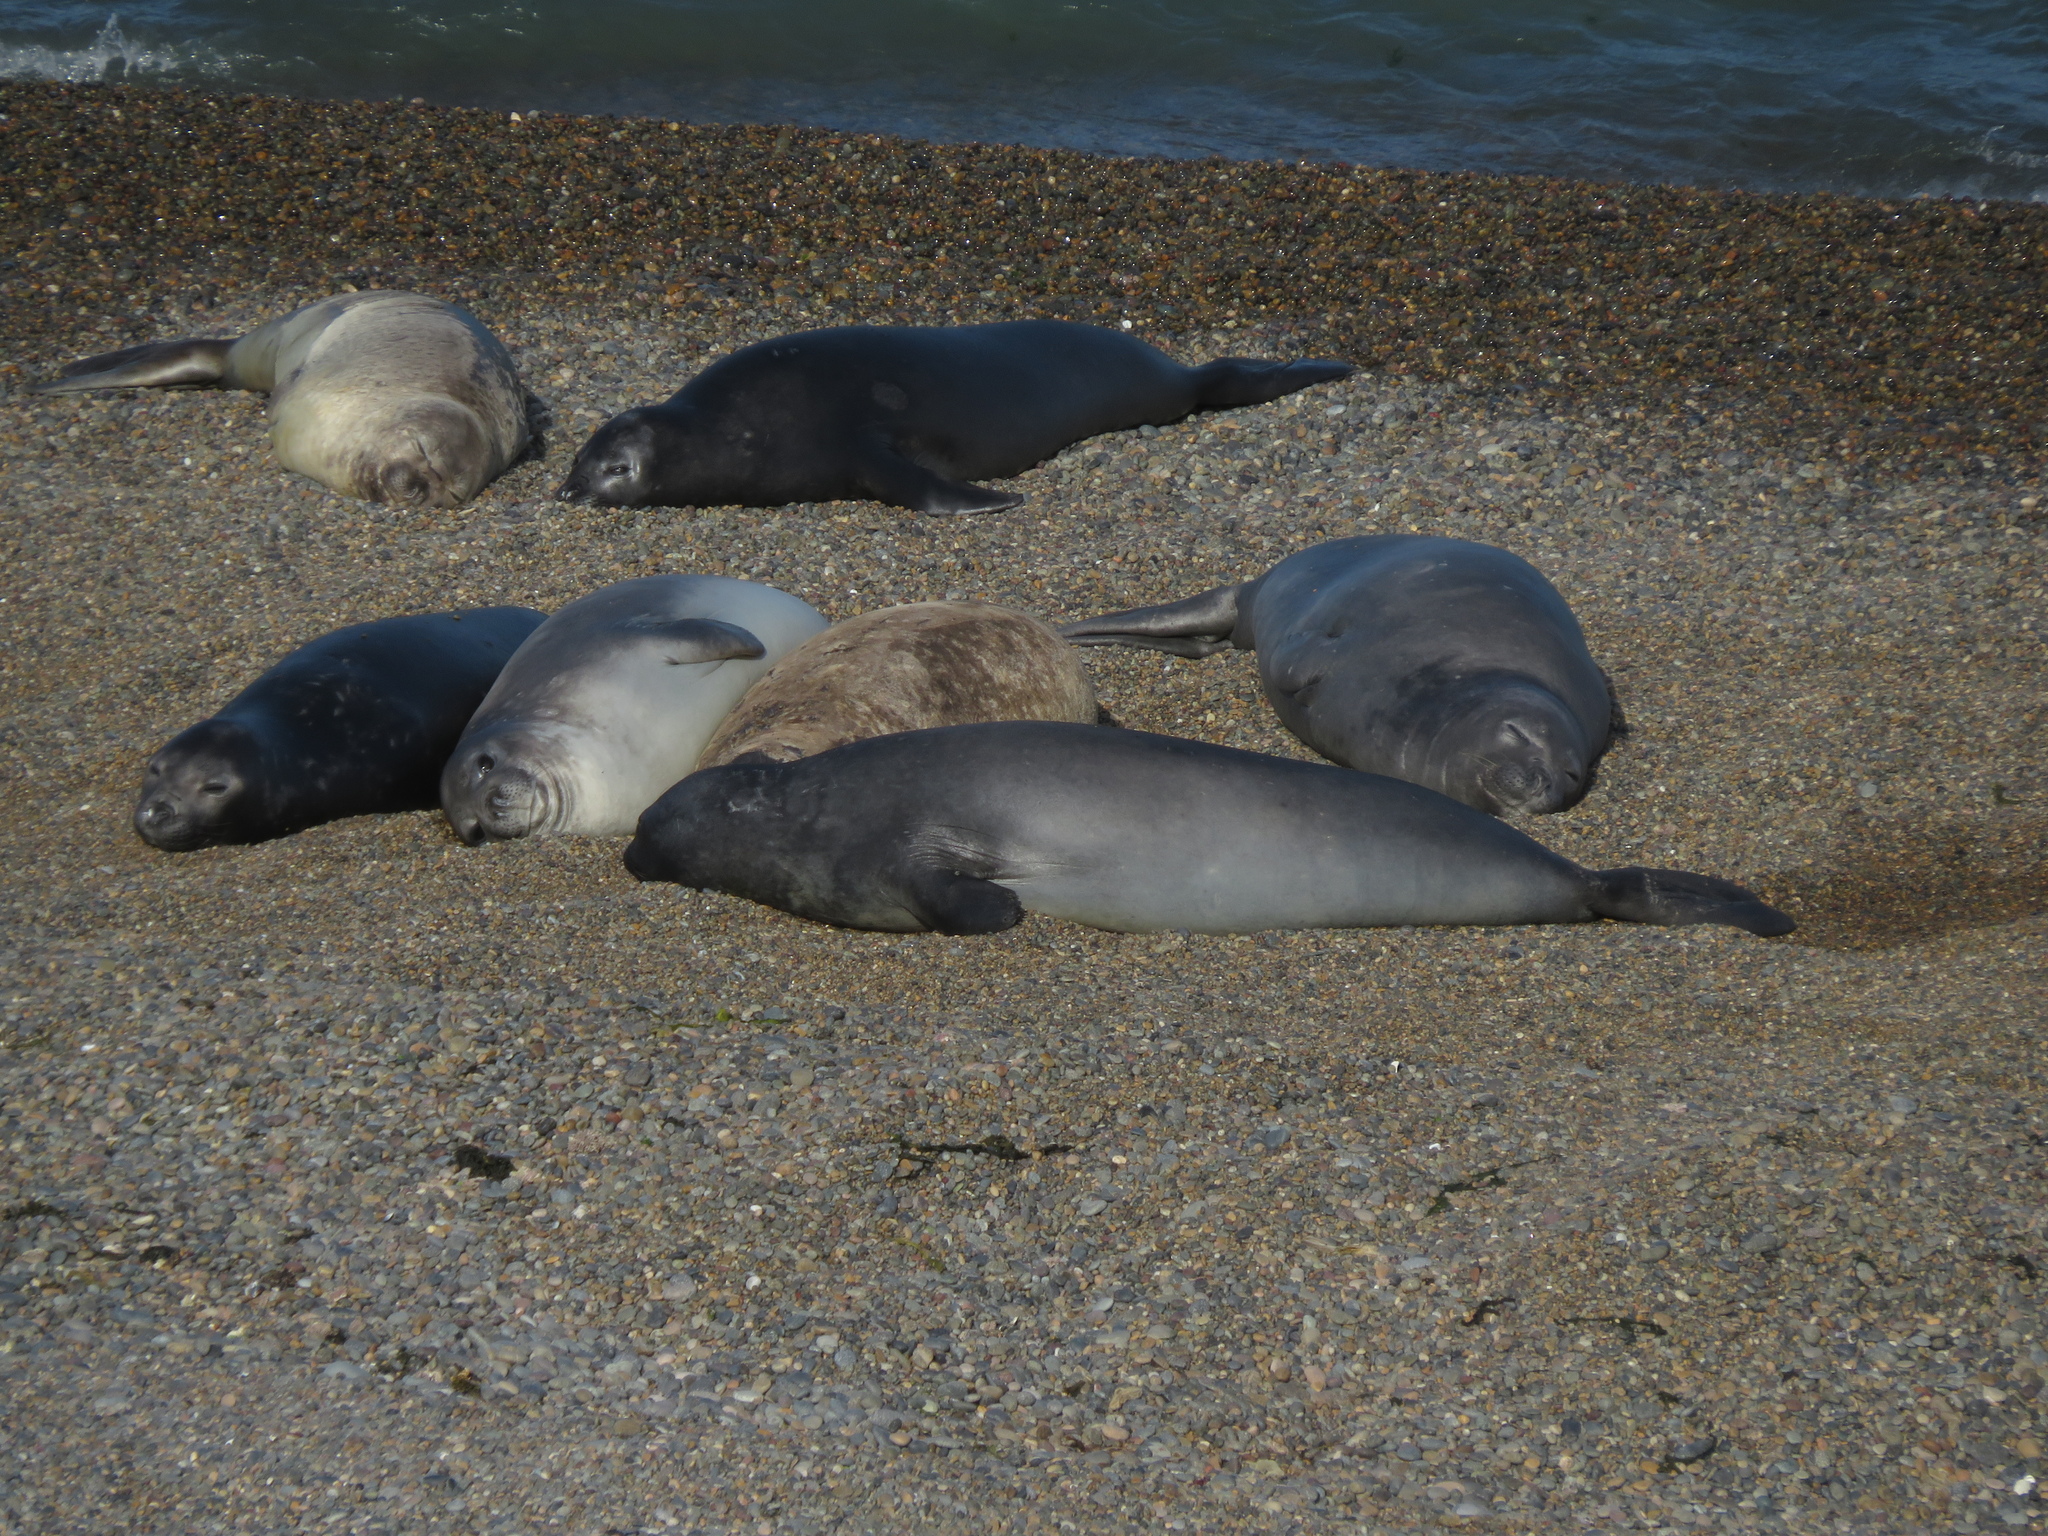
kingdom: Animalia
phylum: Chordata
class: Mammalia
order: Carnivora
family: Phocidae
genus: Mirounga
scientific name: Mirounga leonina
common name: Southern elephant seal
